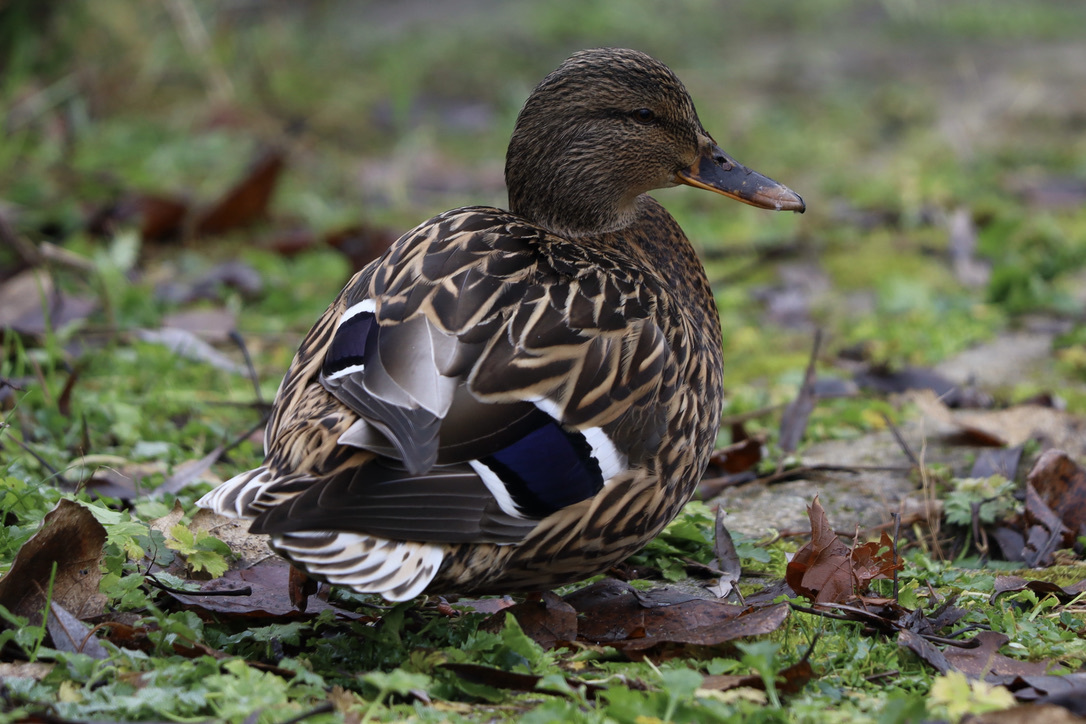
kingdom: Animalia
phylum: Chordata
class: Aves
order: Anseriformes
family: Anatidae
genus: Anas
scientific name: Anas platyrhynchos
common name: Mallard
